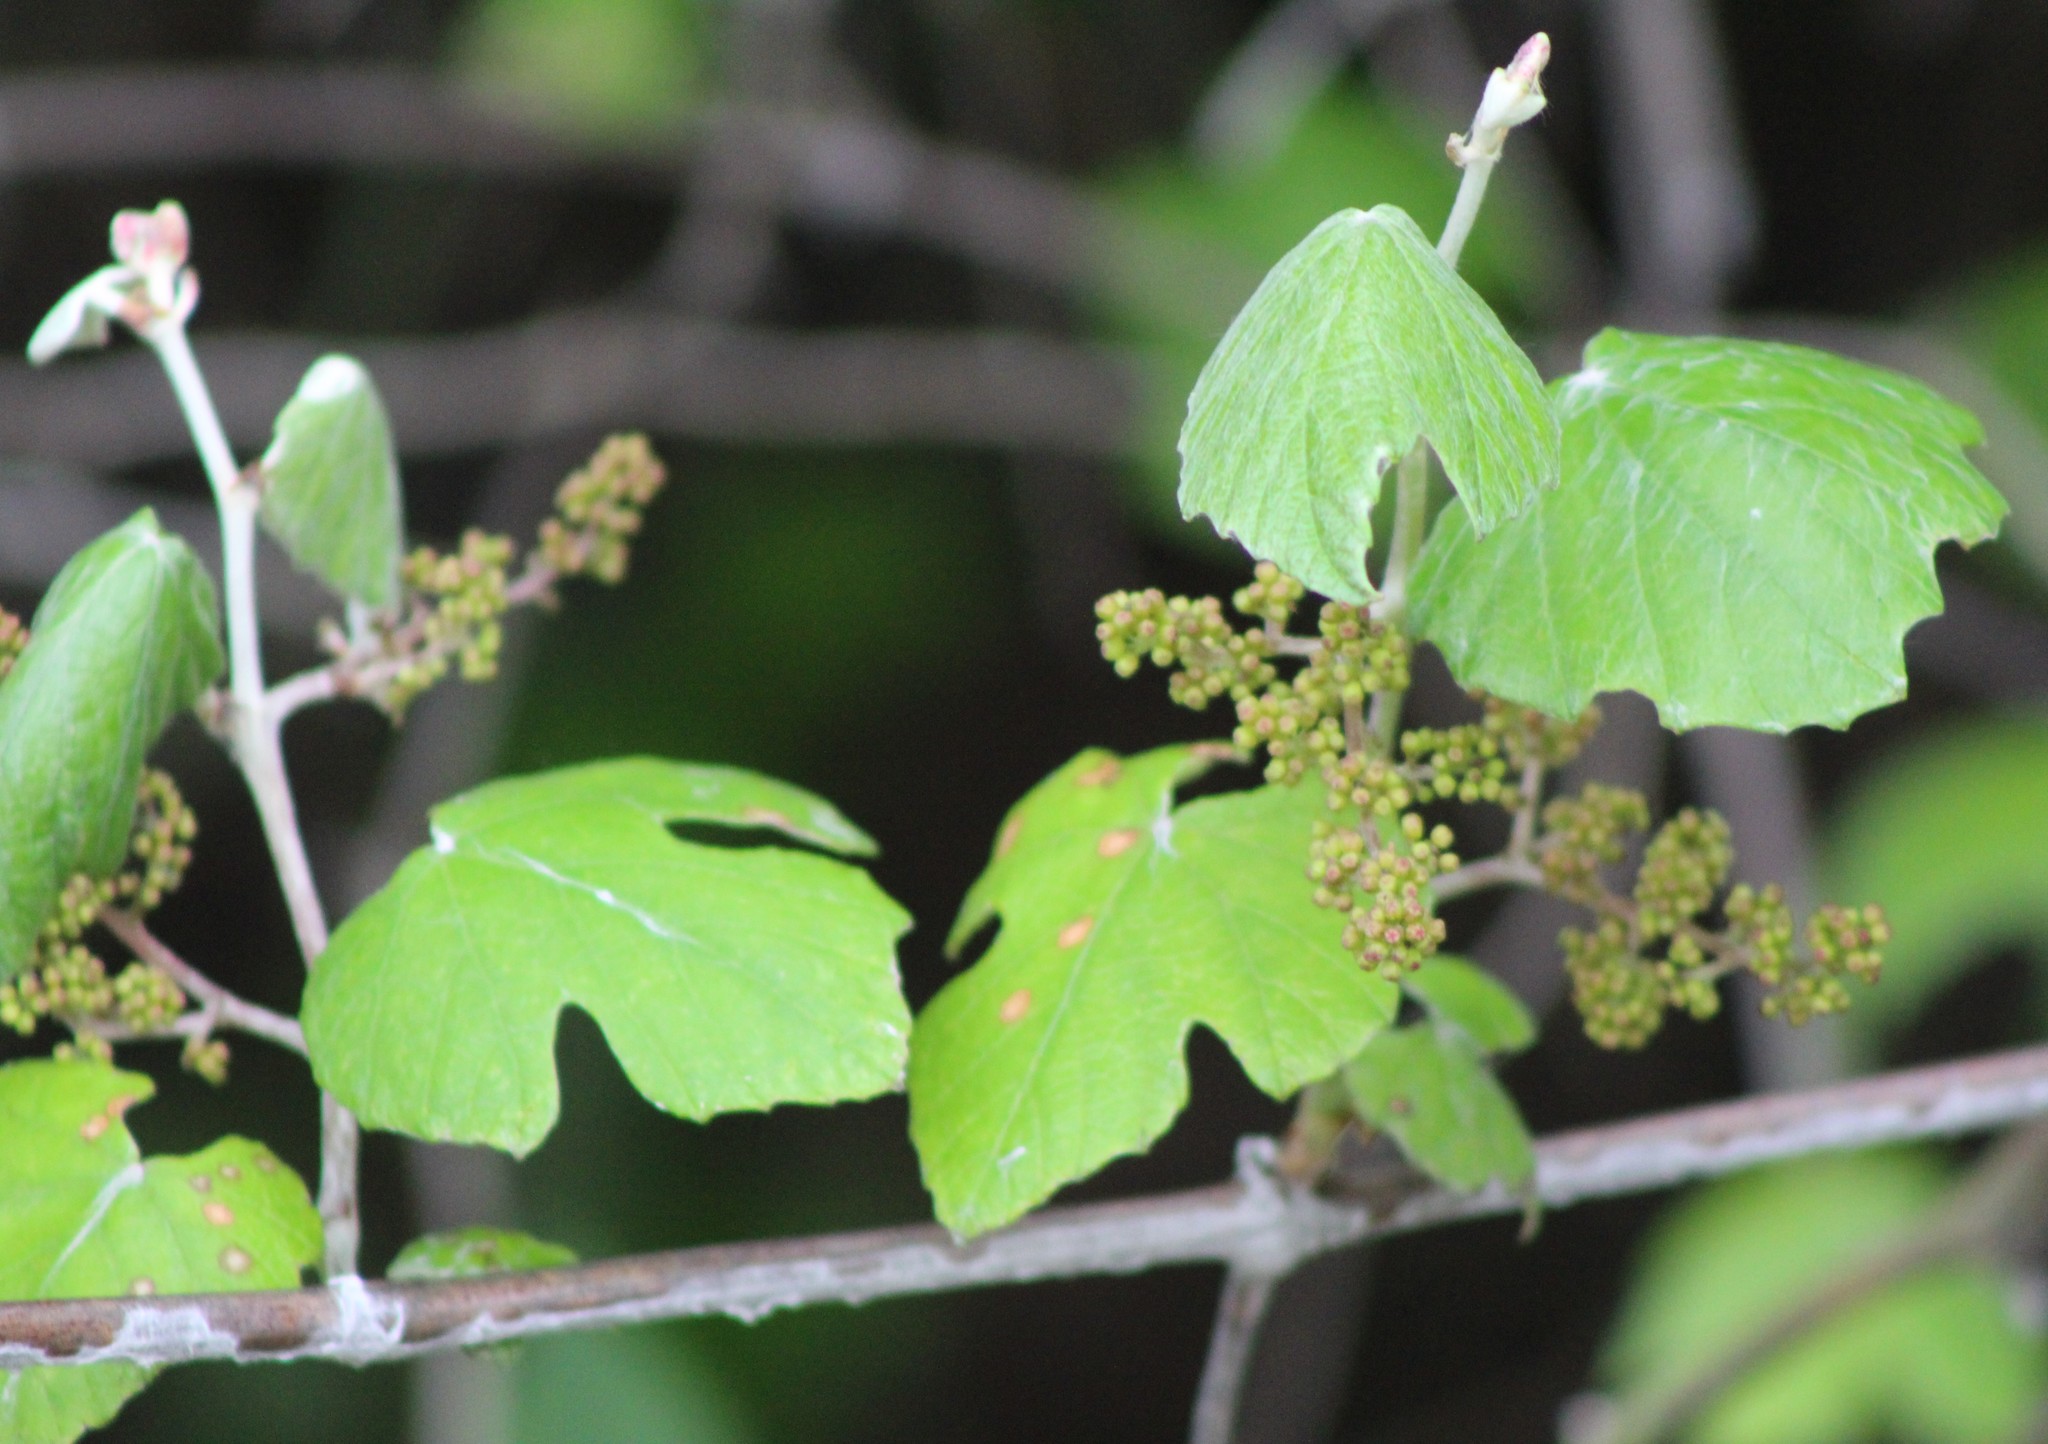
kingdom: Plantae
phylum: Tracheophyta
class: Magnoliopsida
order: Vitales
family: Vitaceae
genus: Vitis
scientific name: Vitis mustangensis
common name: Mustang grape
